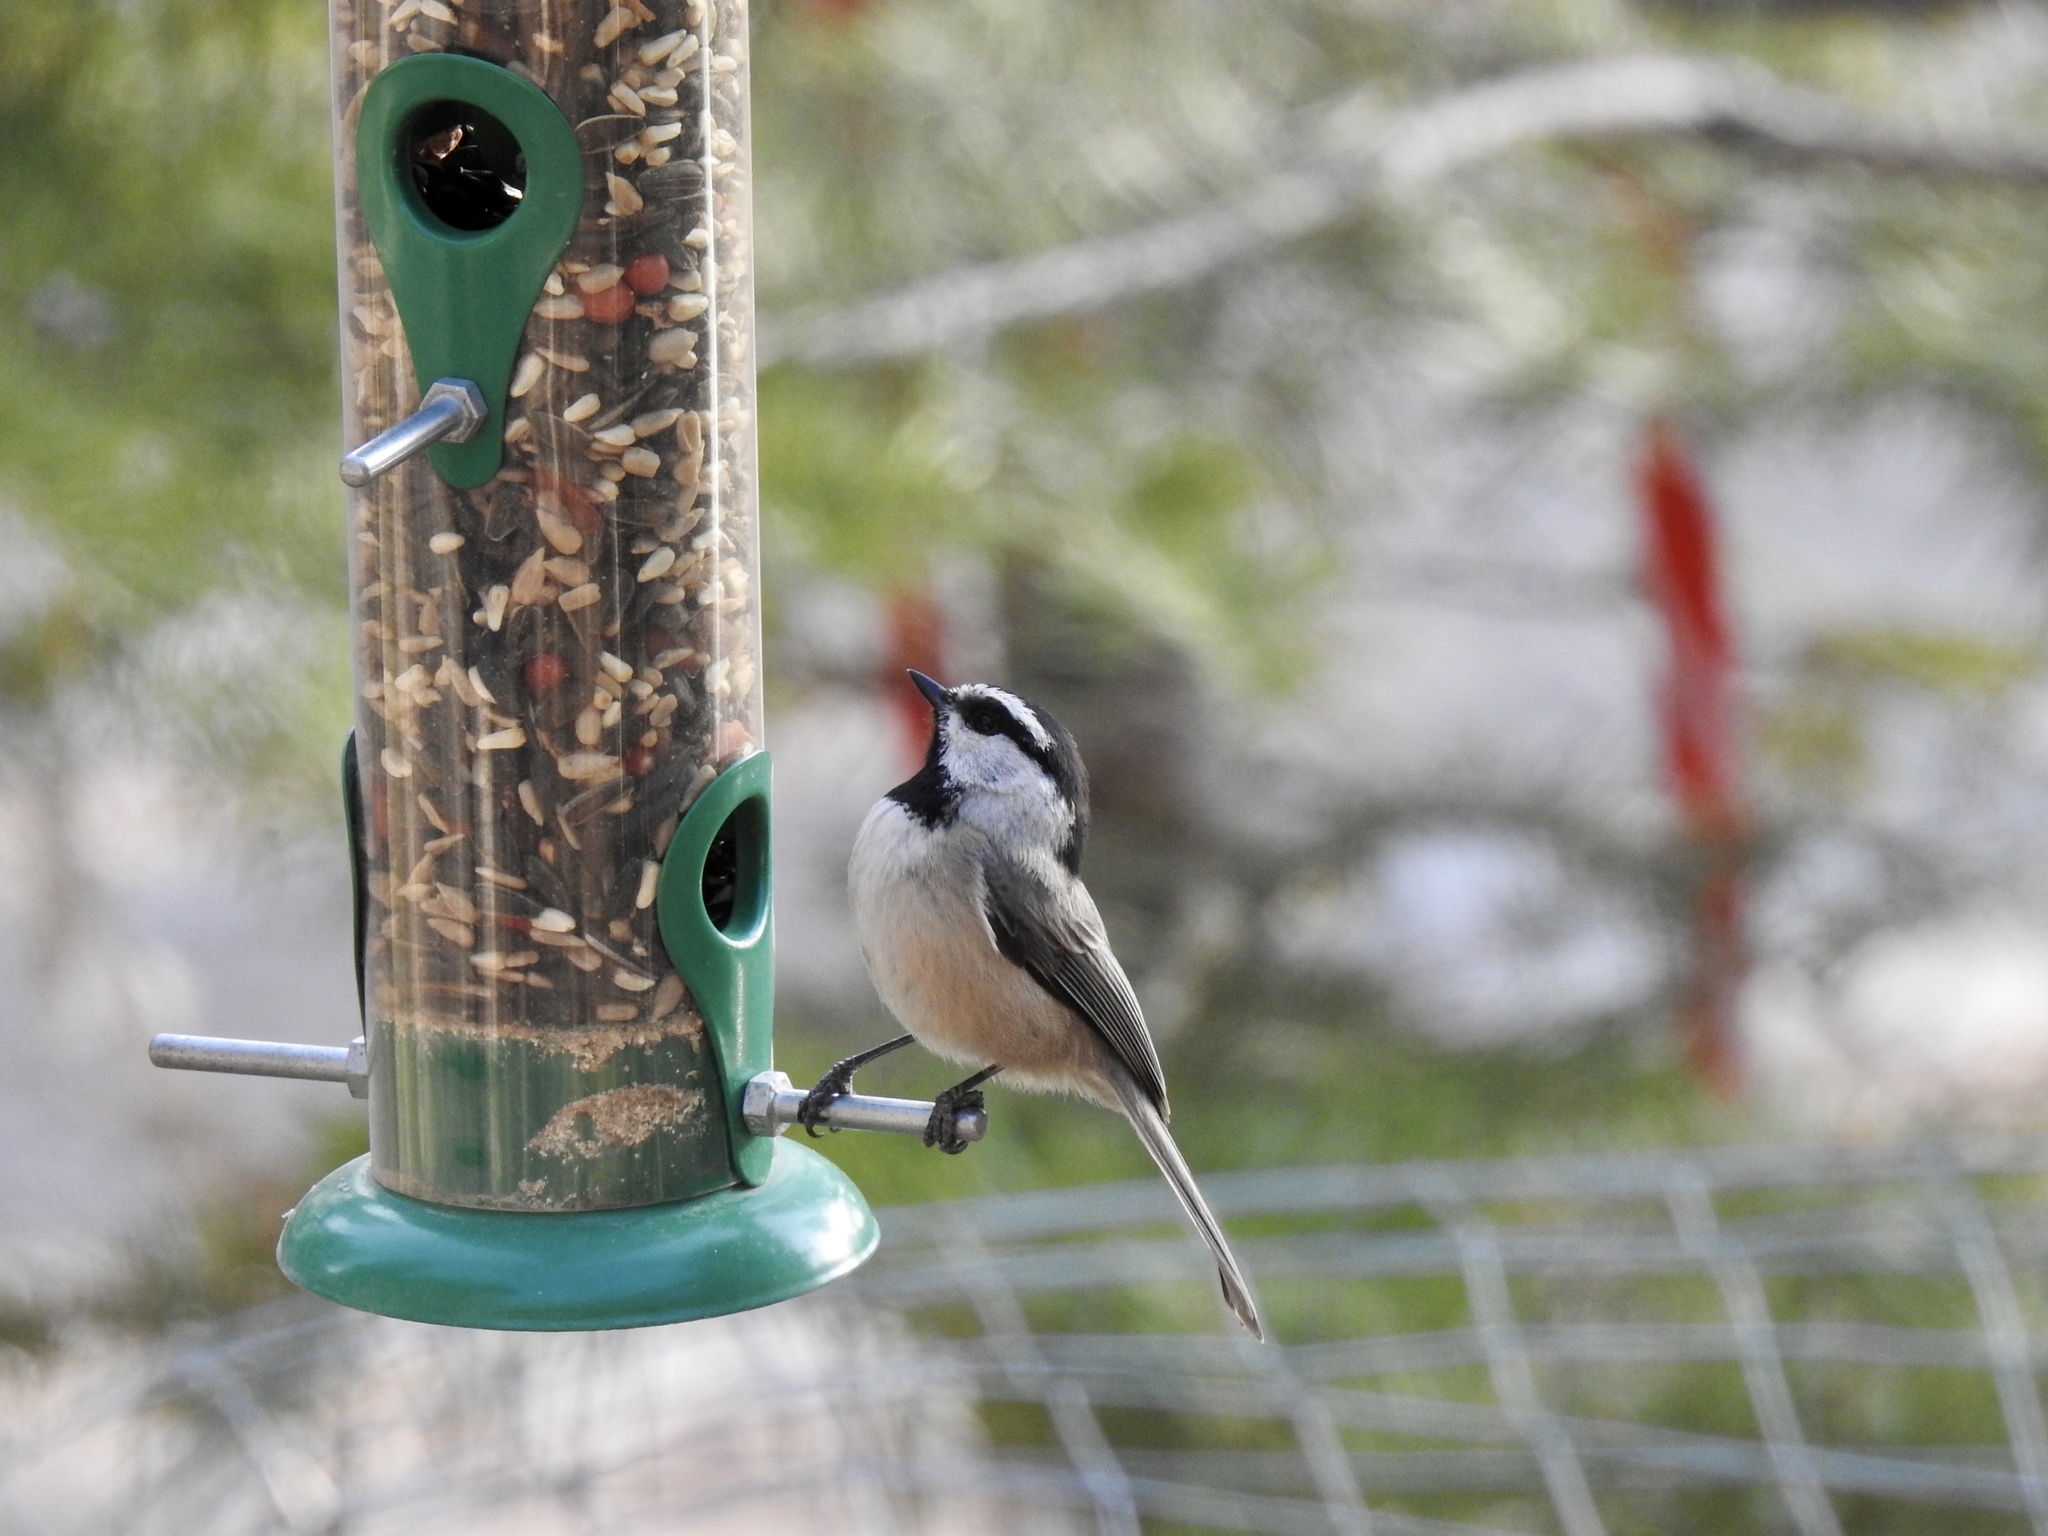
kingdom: Animalia
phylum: Chordata
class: Aves
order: Passeriformes
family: Paridae
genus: Poecile
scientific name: Poecile gambeli
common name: Mountain chickadee
